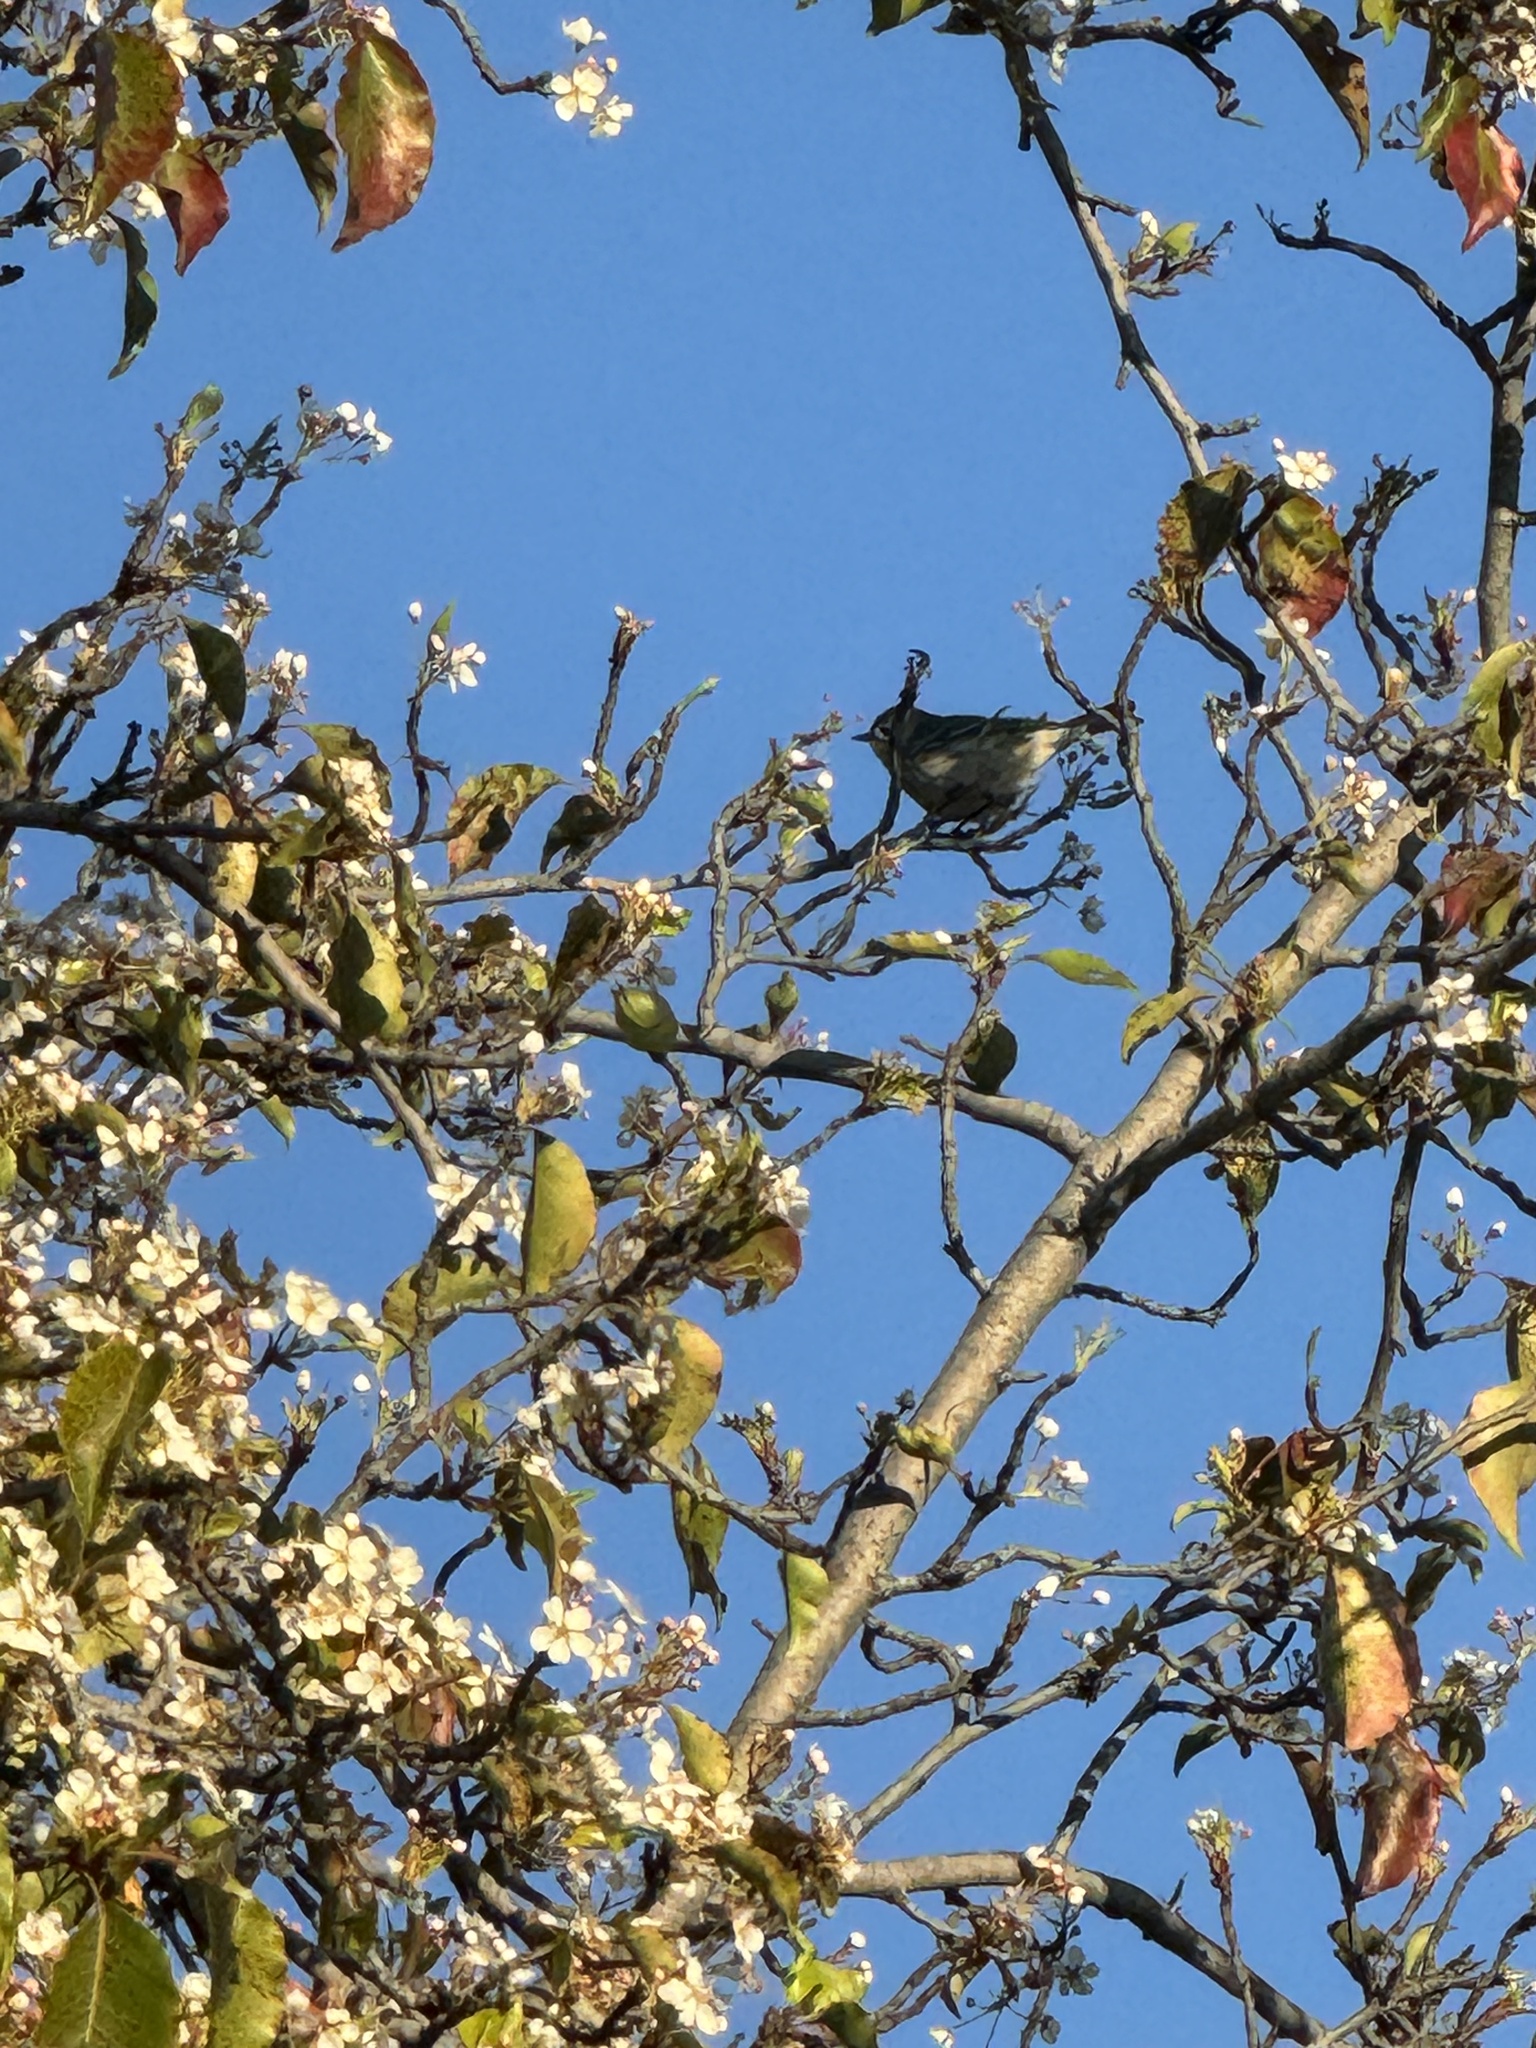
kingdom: Animalia
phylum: Chordata
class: Aves
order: Passeriformes
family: Parulidae
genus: Setophaga
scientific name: Setophaga coronata
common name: Myrtle warbler
